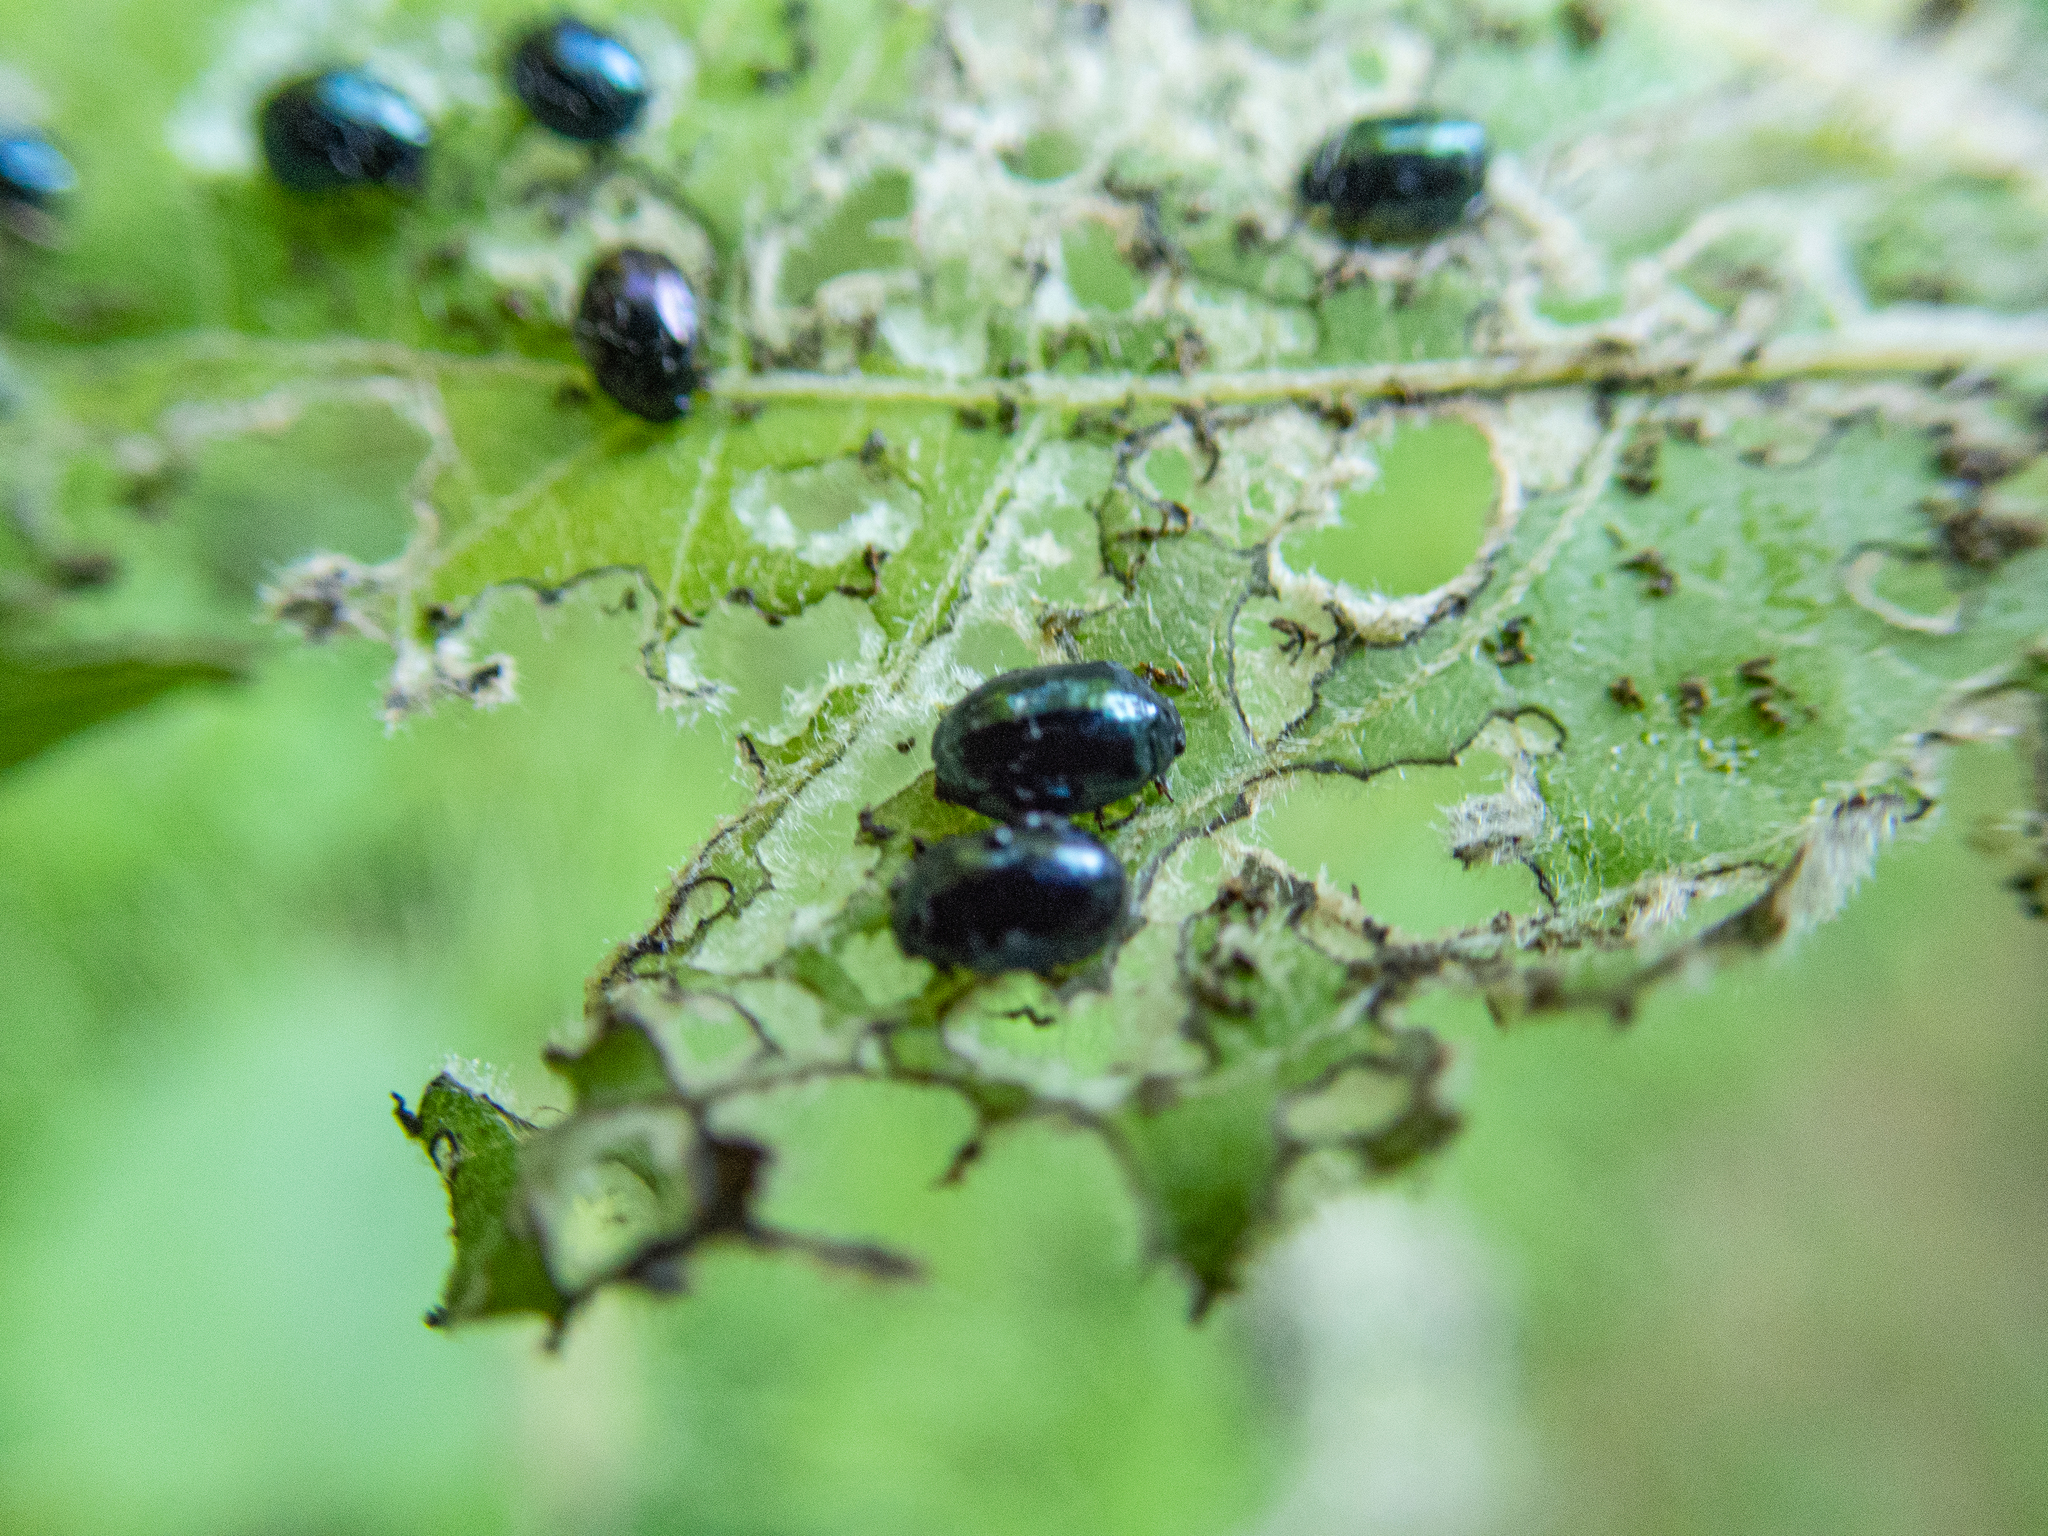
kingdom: Animalia
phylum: Arthropoda
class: Insecta
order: Coleoptera
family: Chrysomelidae
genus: Plagiodera
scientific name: Plagiodera versicolora
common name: Imported willow leaf beetle
